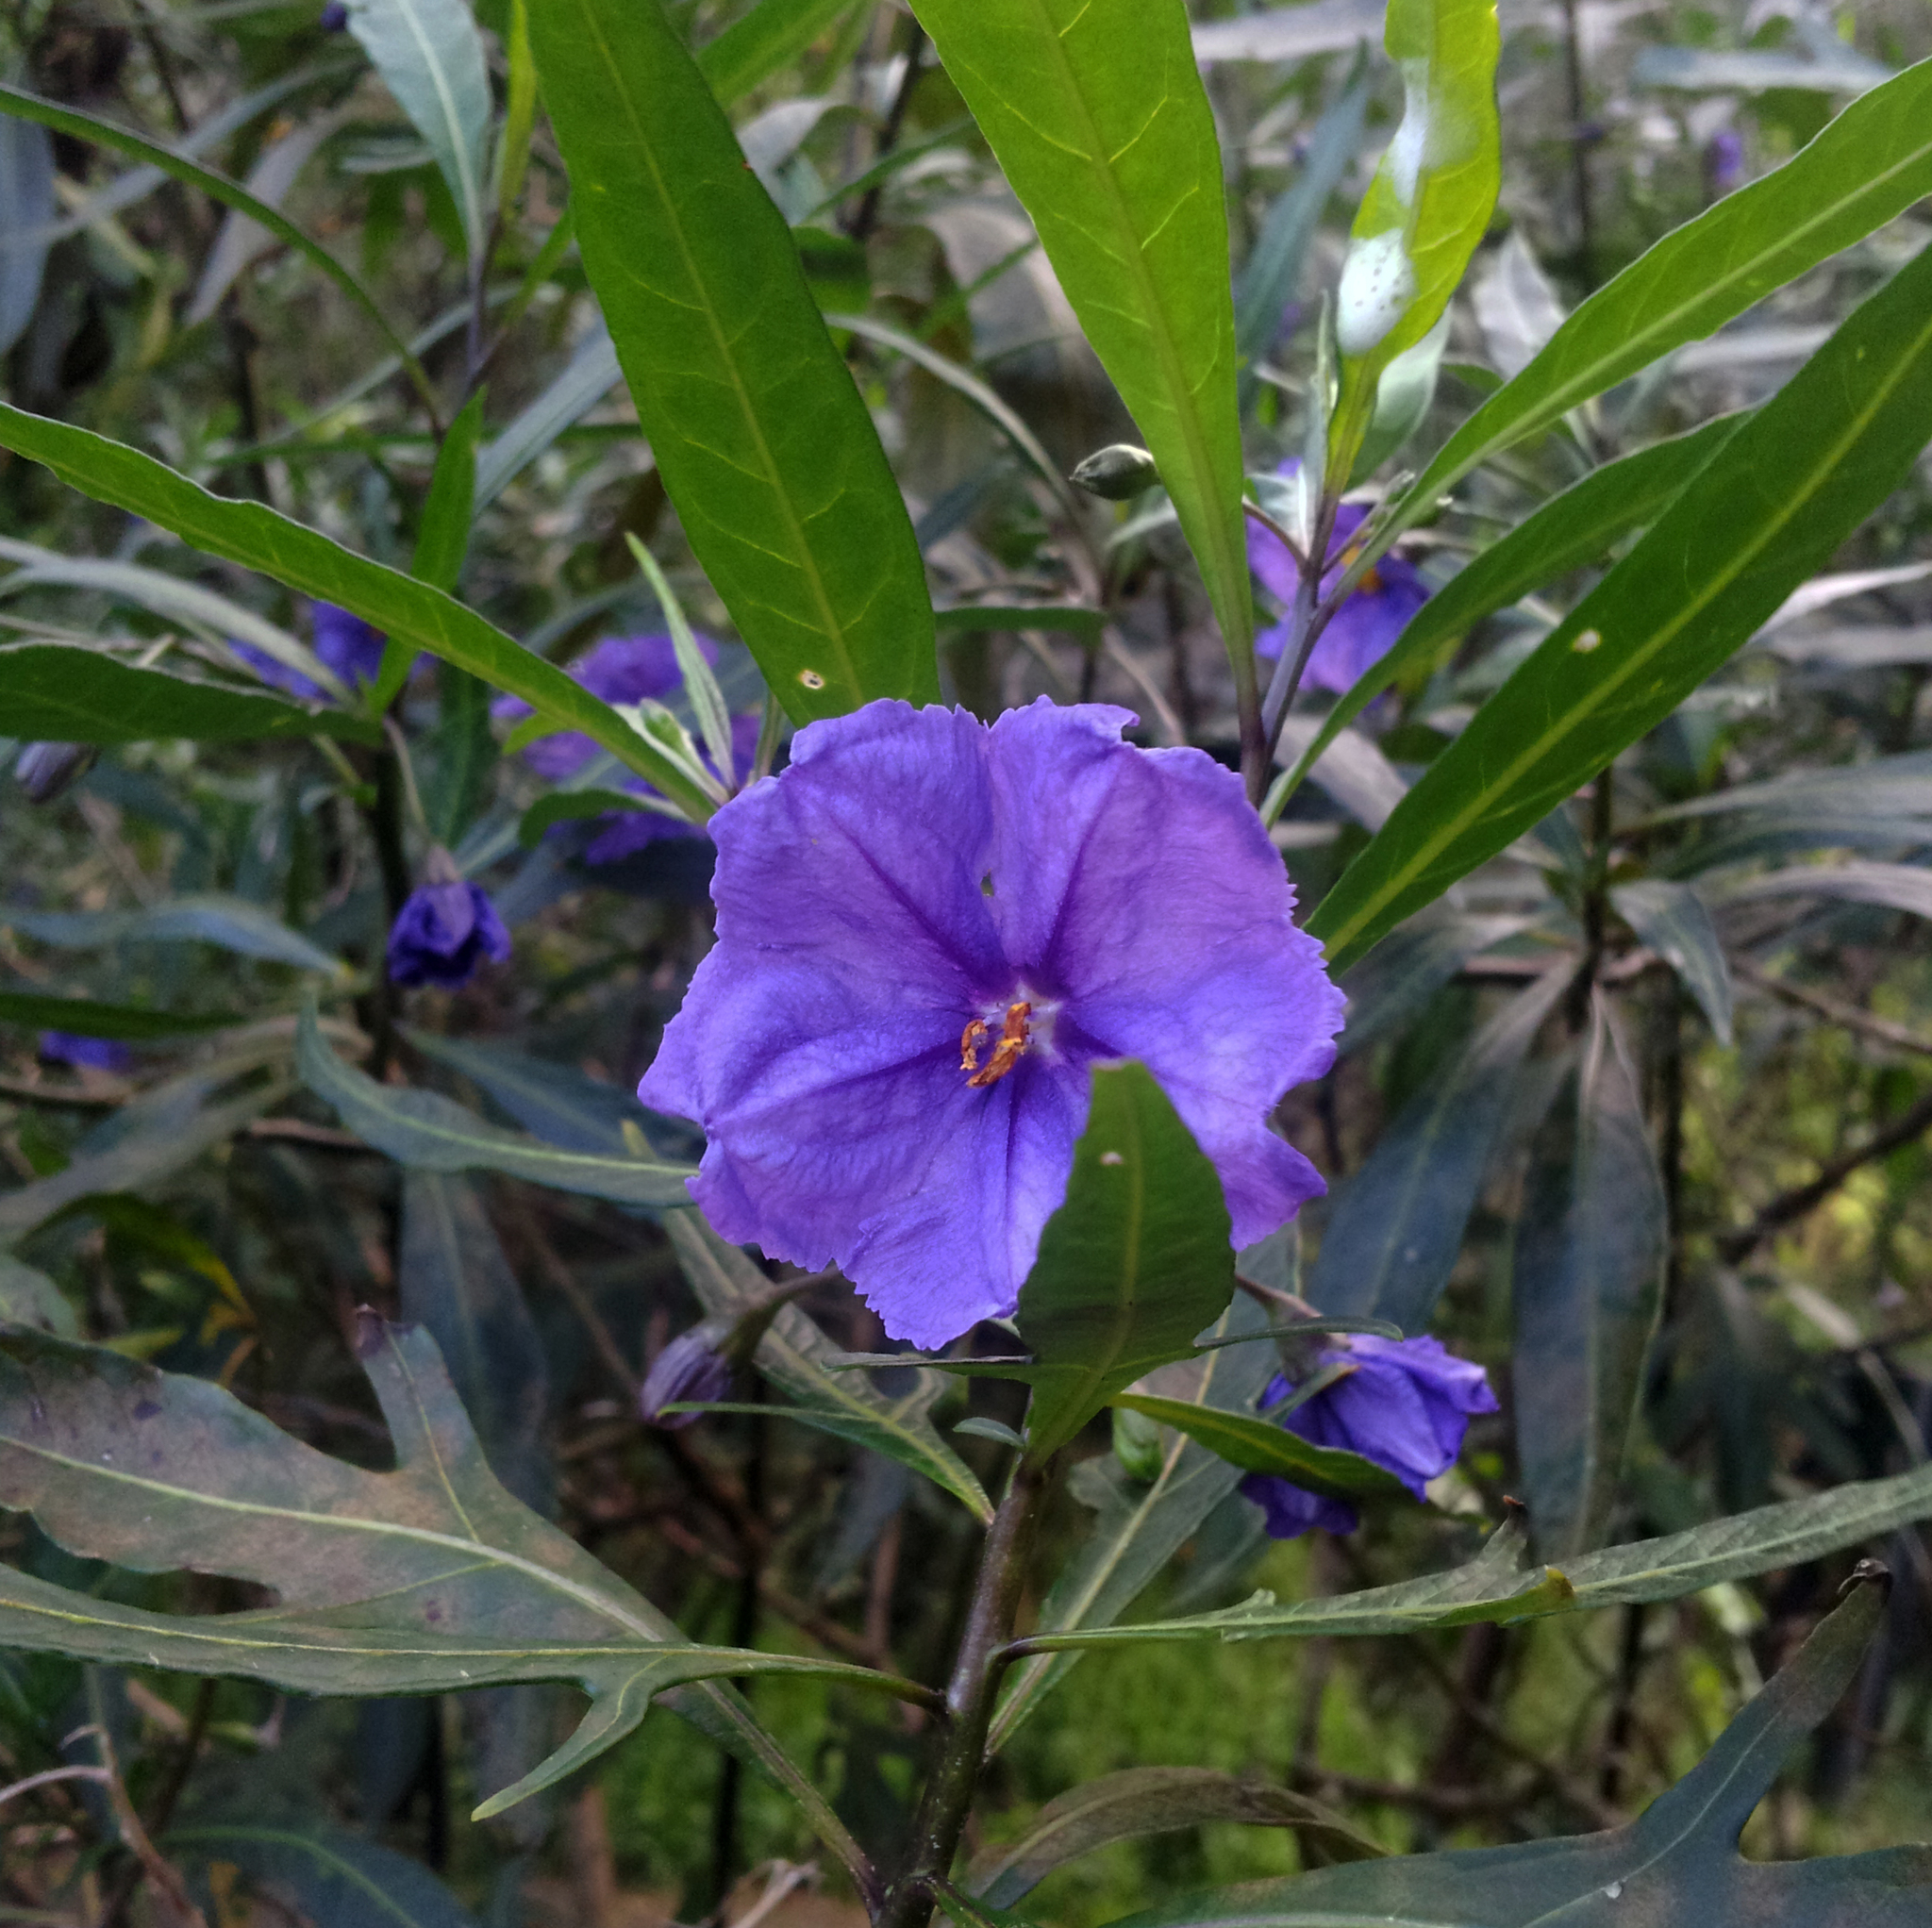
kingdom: Plantae
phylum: Tracheophyta
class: Magnoliopsida
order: Solanales
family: Solanaceae
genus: Solanum
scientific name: Solanum laciniatum
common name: Kangaroo-apple
